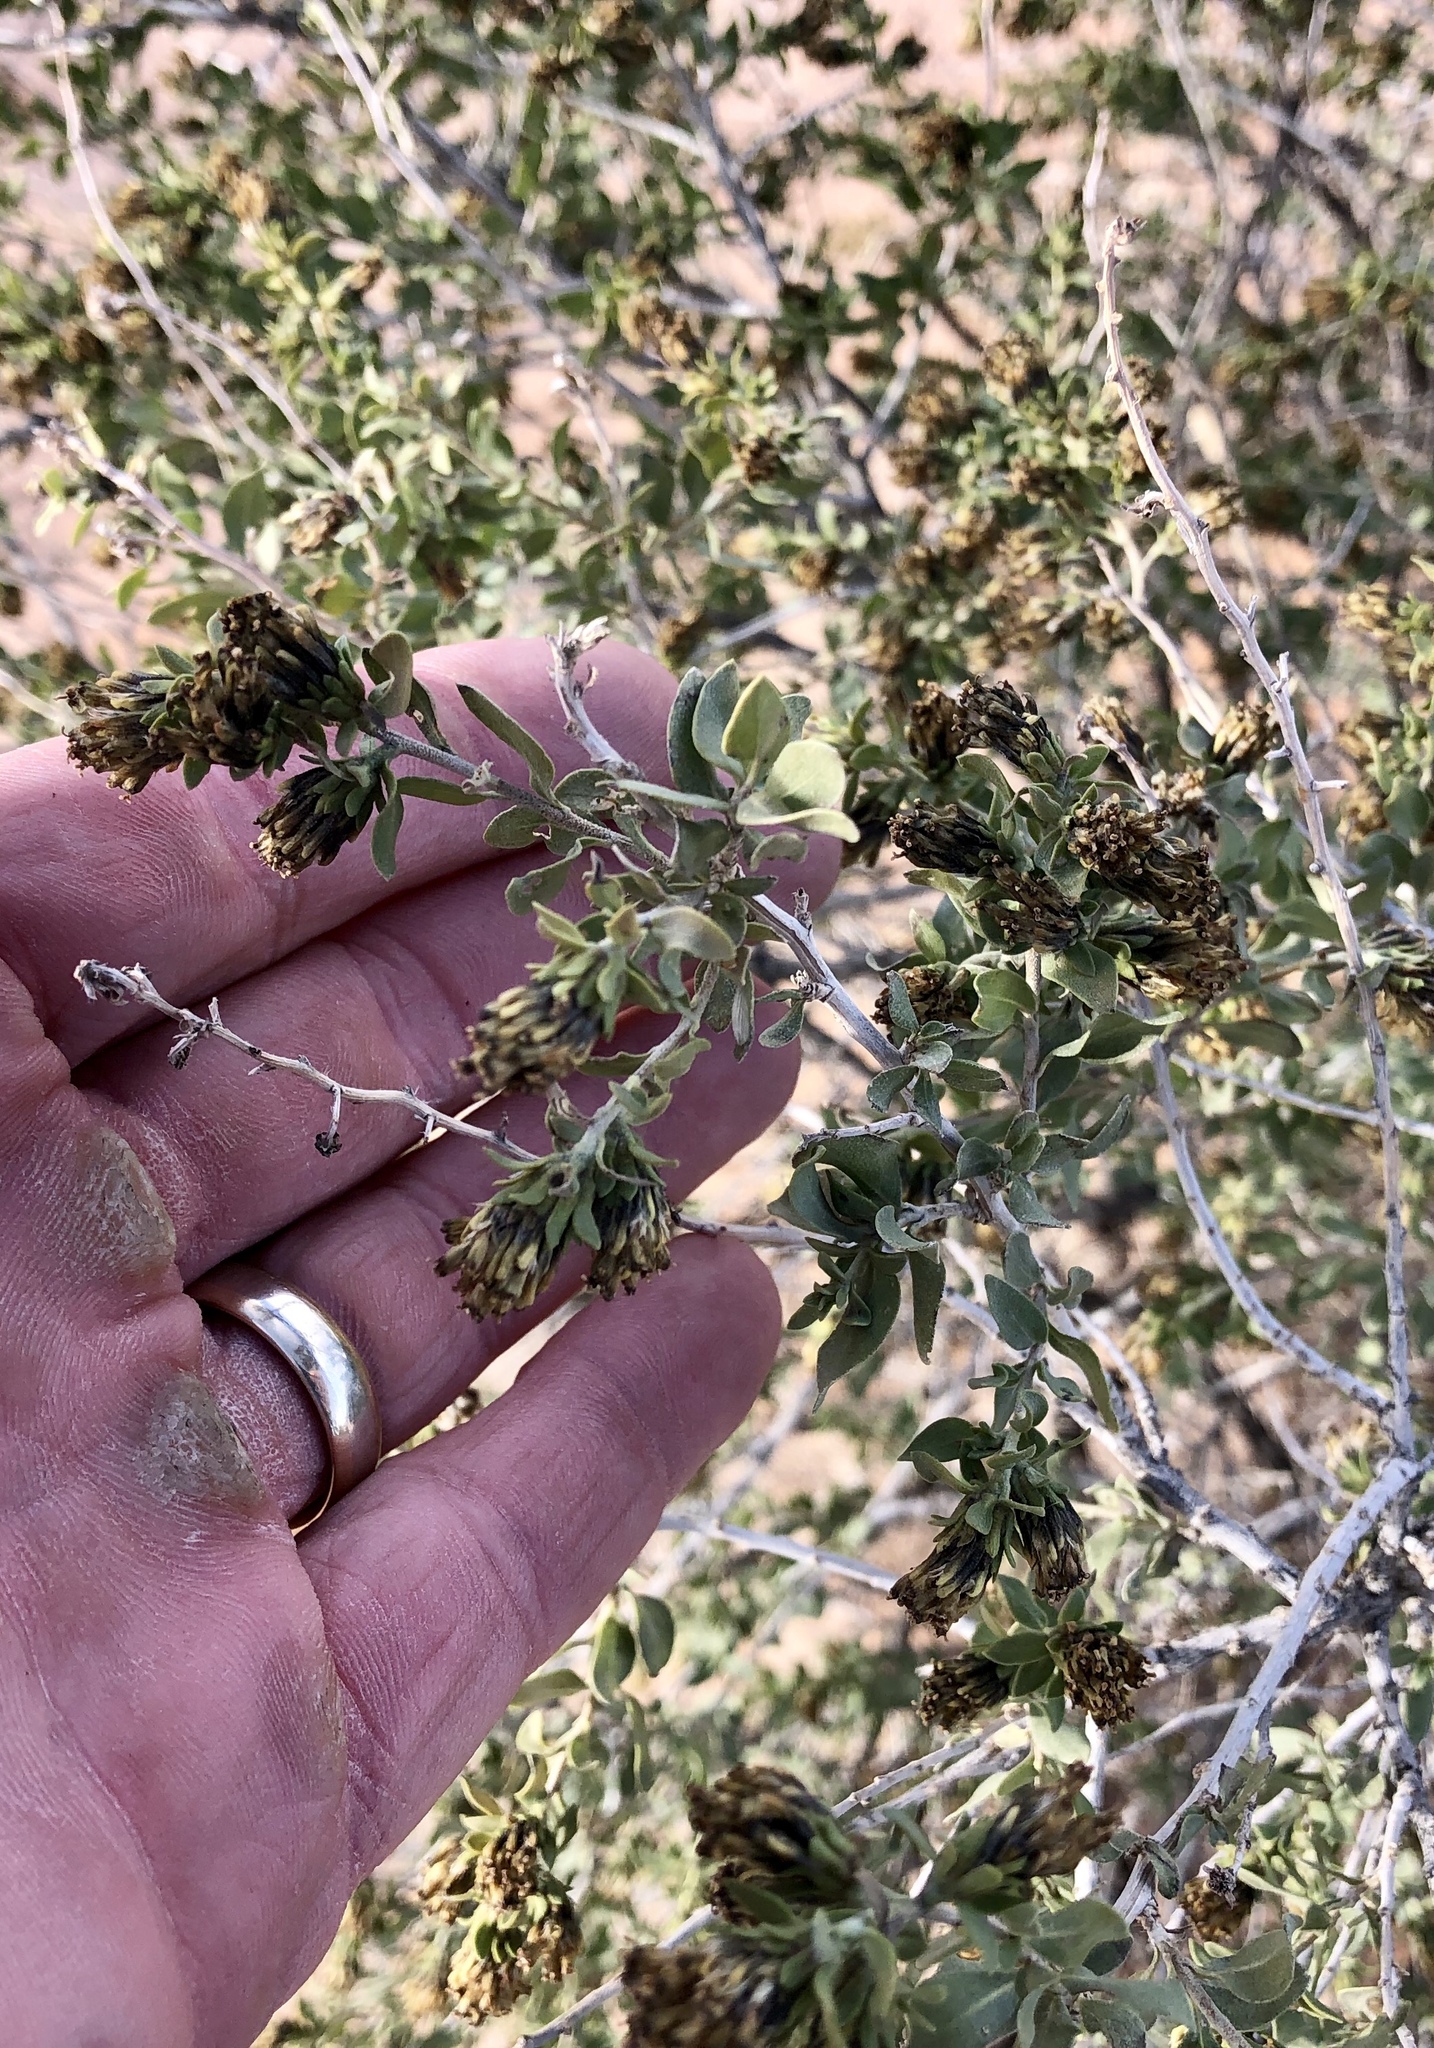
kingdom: Plantae
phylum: Tracheophyta
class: Magnoliopsida
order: Asterales
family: Asteraceae
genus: Flourensia
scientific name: Flourensia cernua
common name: Varnishbush
